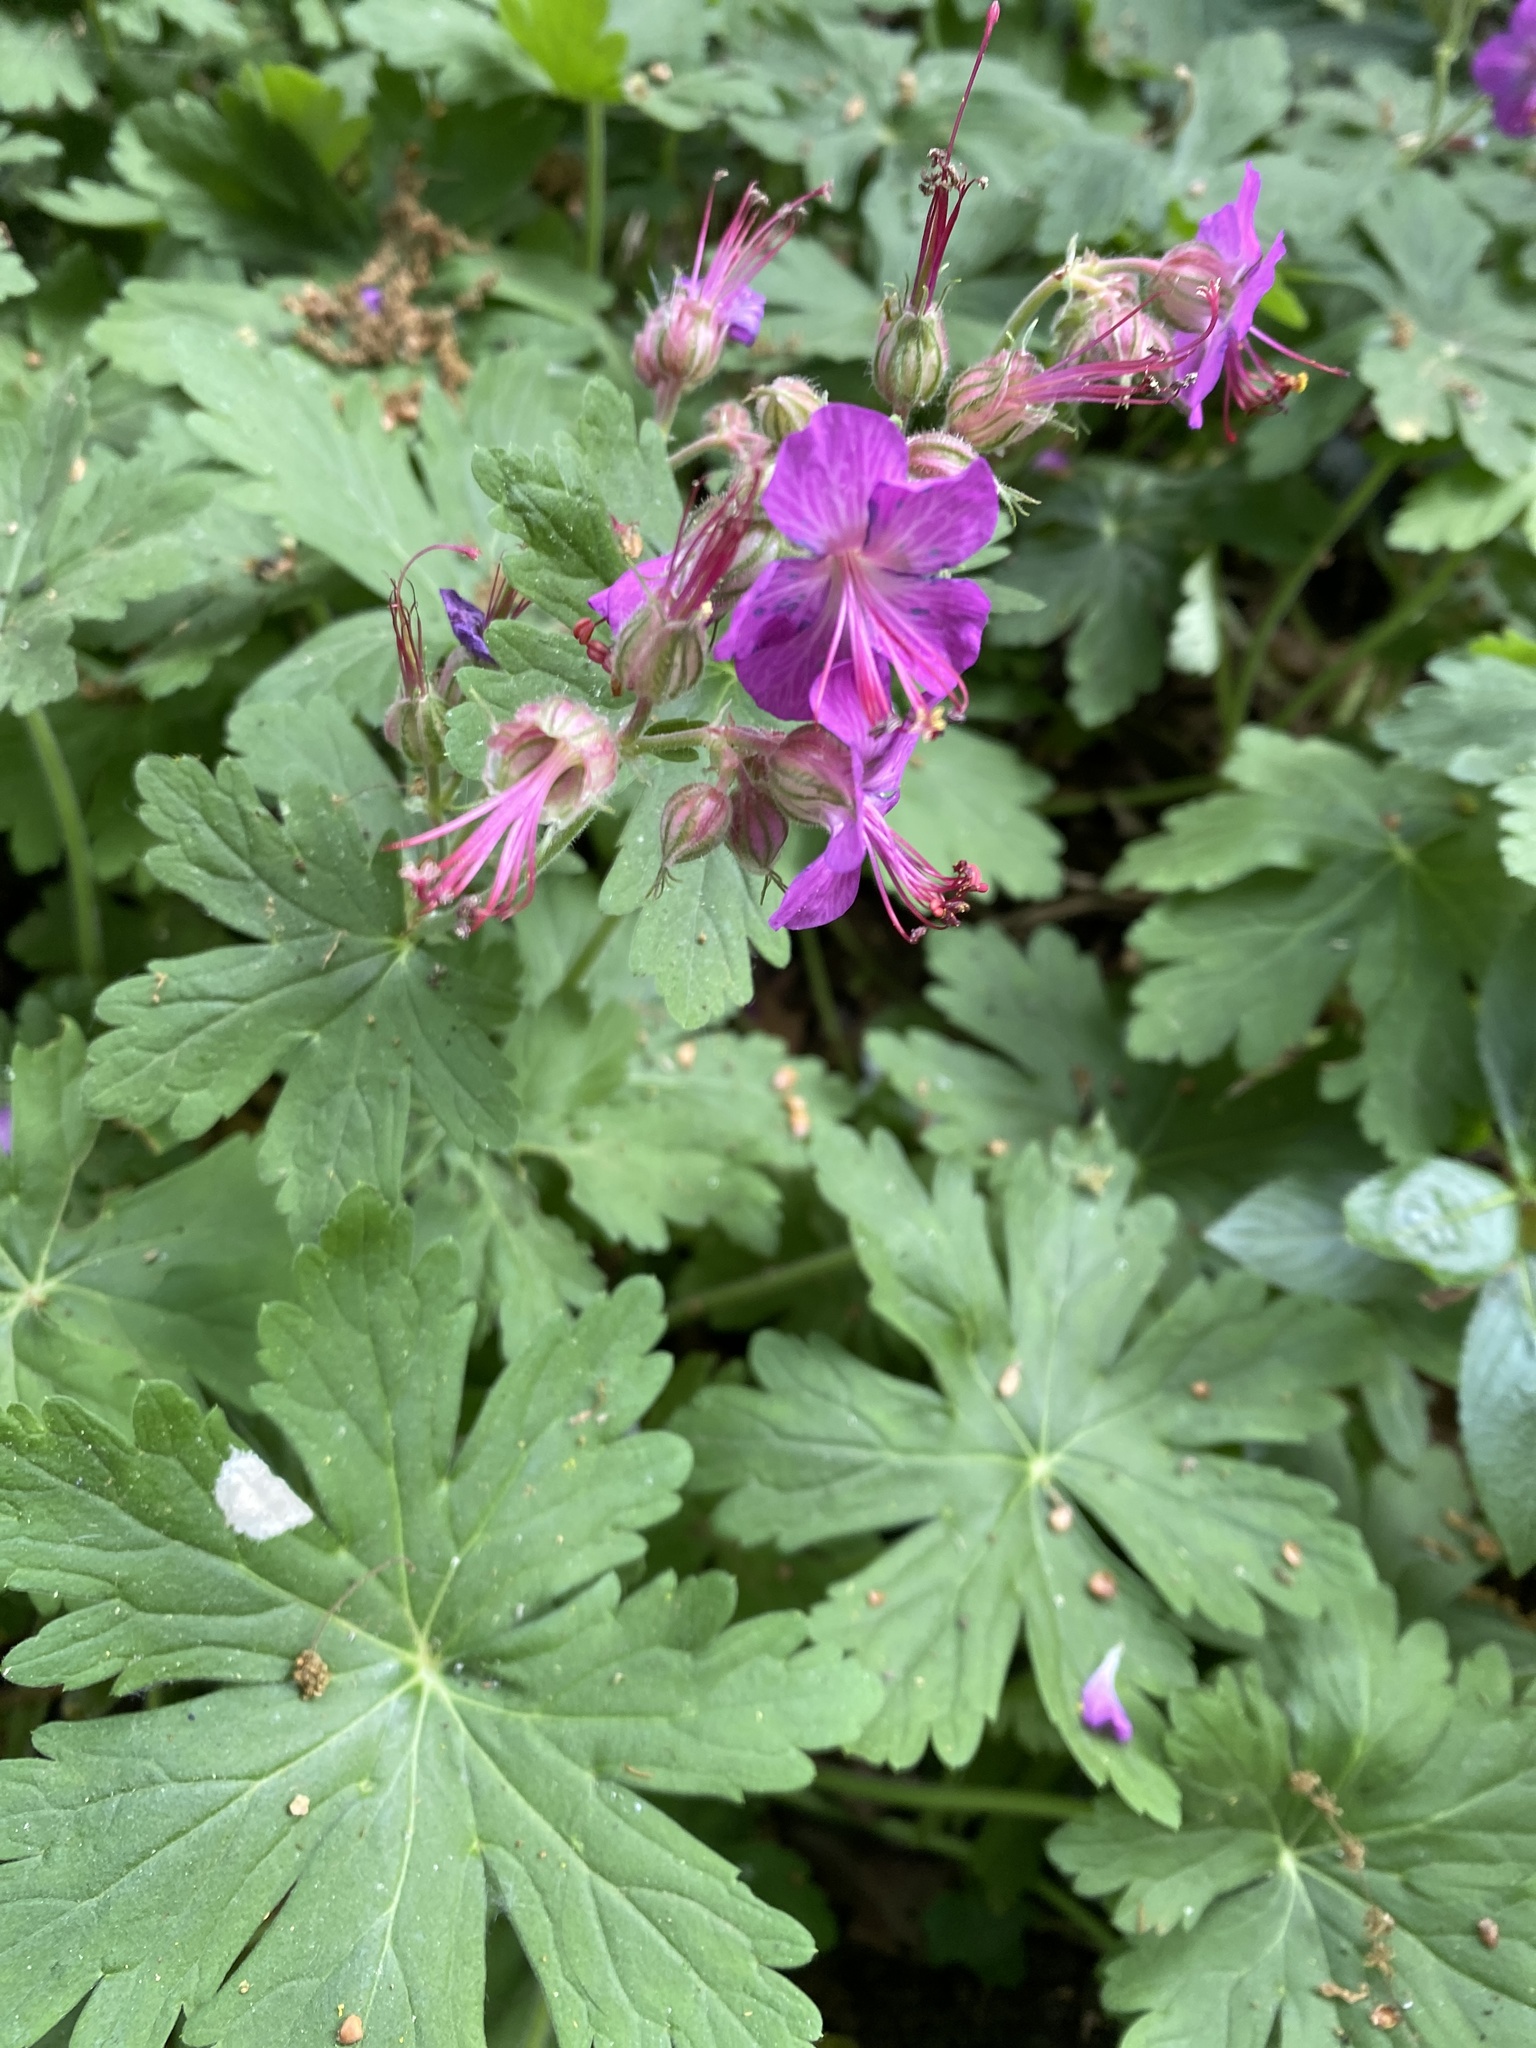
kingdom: Plantae
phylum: Tracheophyta
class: Magnoliopsida
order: Geraniales
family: Geraniaceae
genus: Geranium
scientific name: Geranium macrorrhizum
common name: Rock crane's-bill
